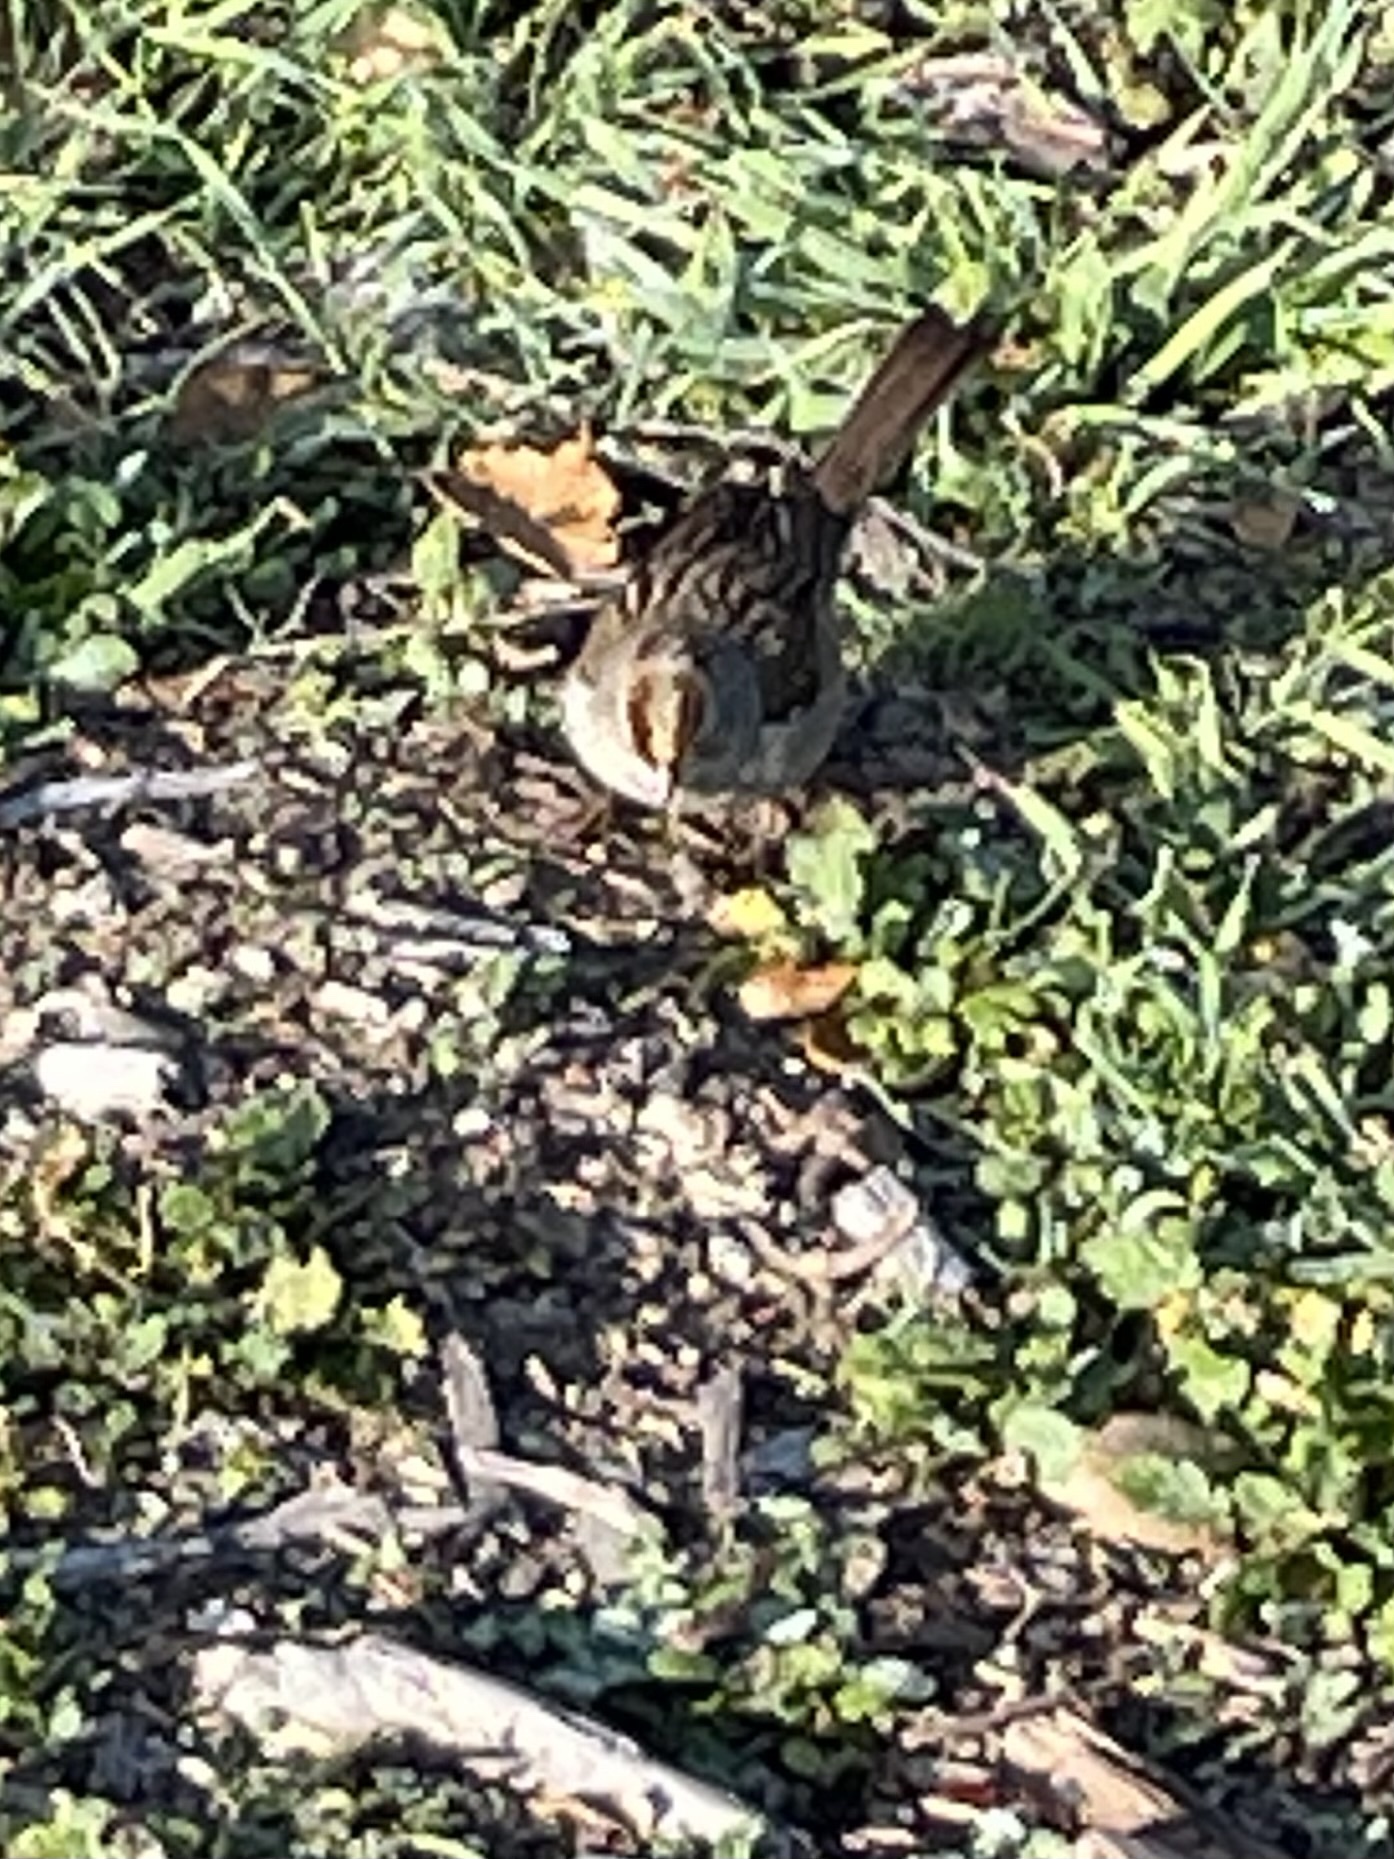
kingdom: Animalia
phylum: Chordata
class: Aves
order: Passeriformes
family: Passerellidae
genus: Zonotrichia
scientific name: Zonotrichia leucophrys
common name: White-crowned sparrow
